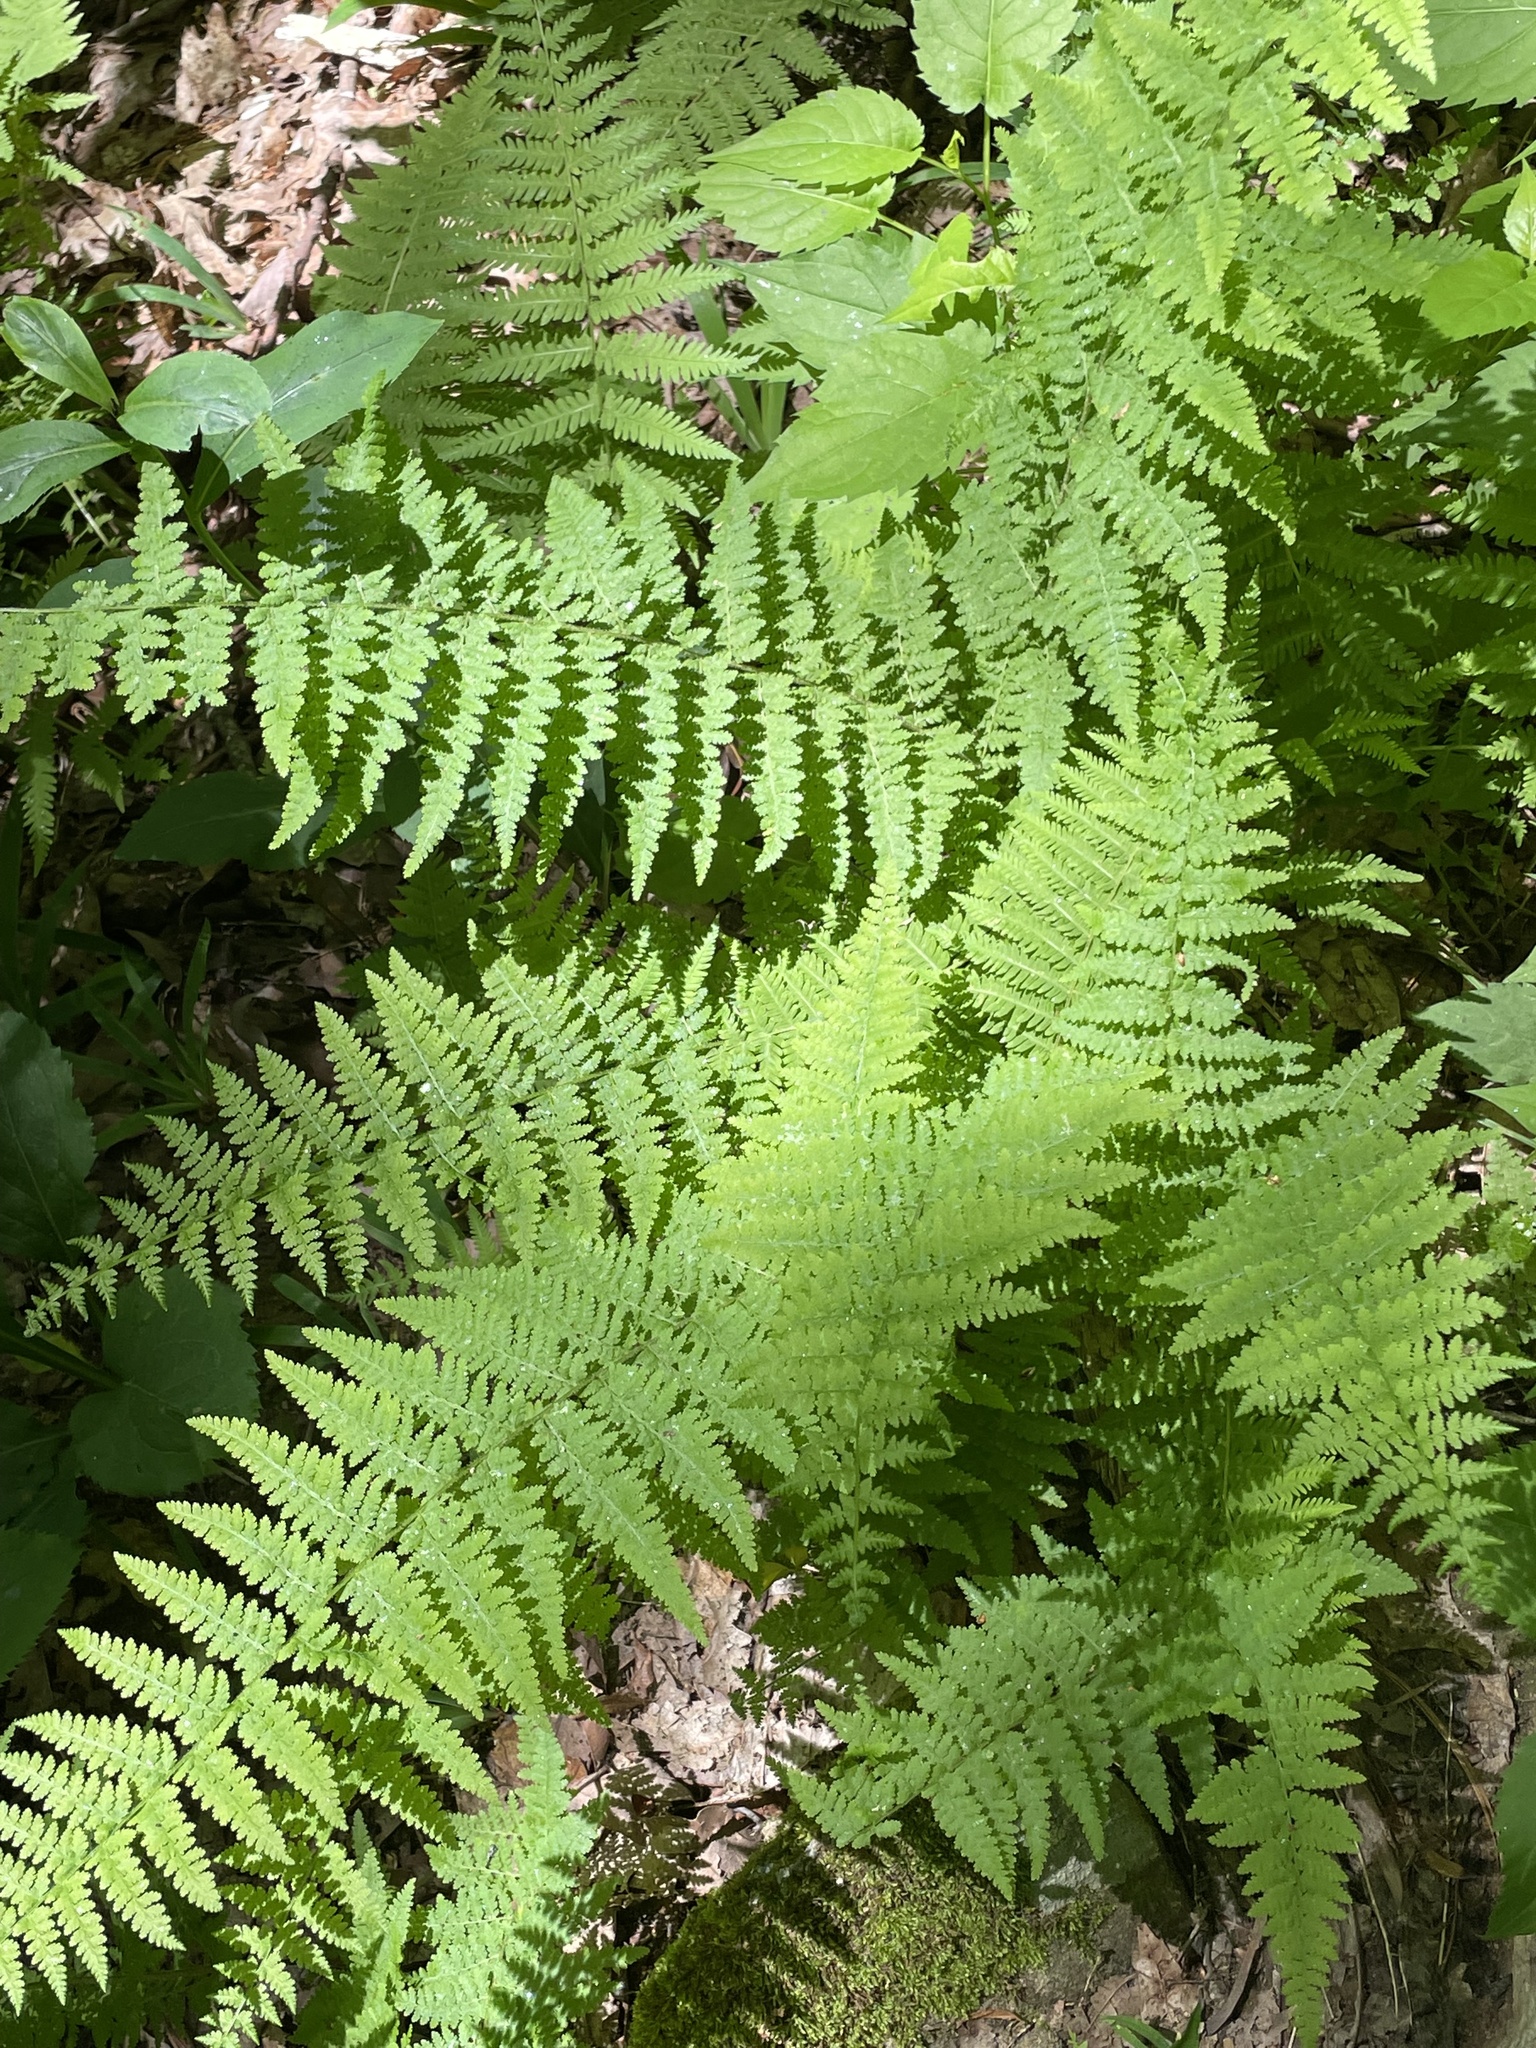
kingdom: Plantae
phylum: Tracheophyta
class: Polypodiopsida
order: Polypodiales
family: Dennstaedtiaceae
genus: Sitobolium
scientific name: Sitobolium punctilobum
